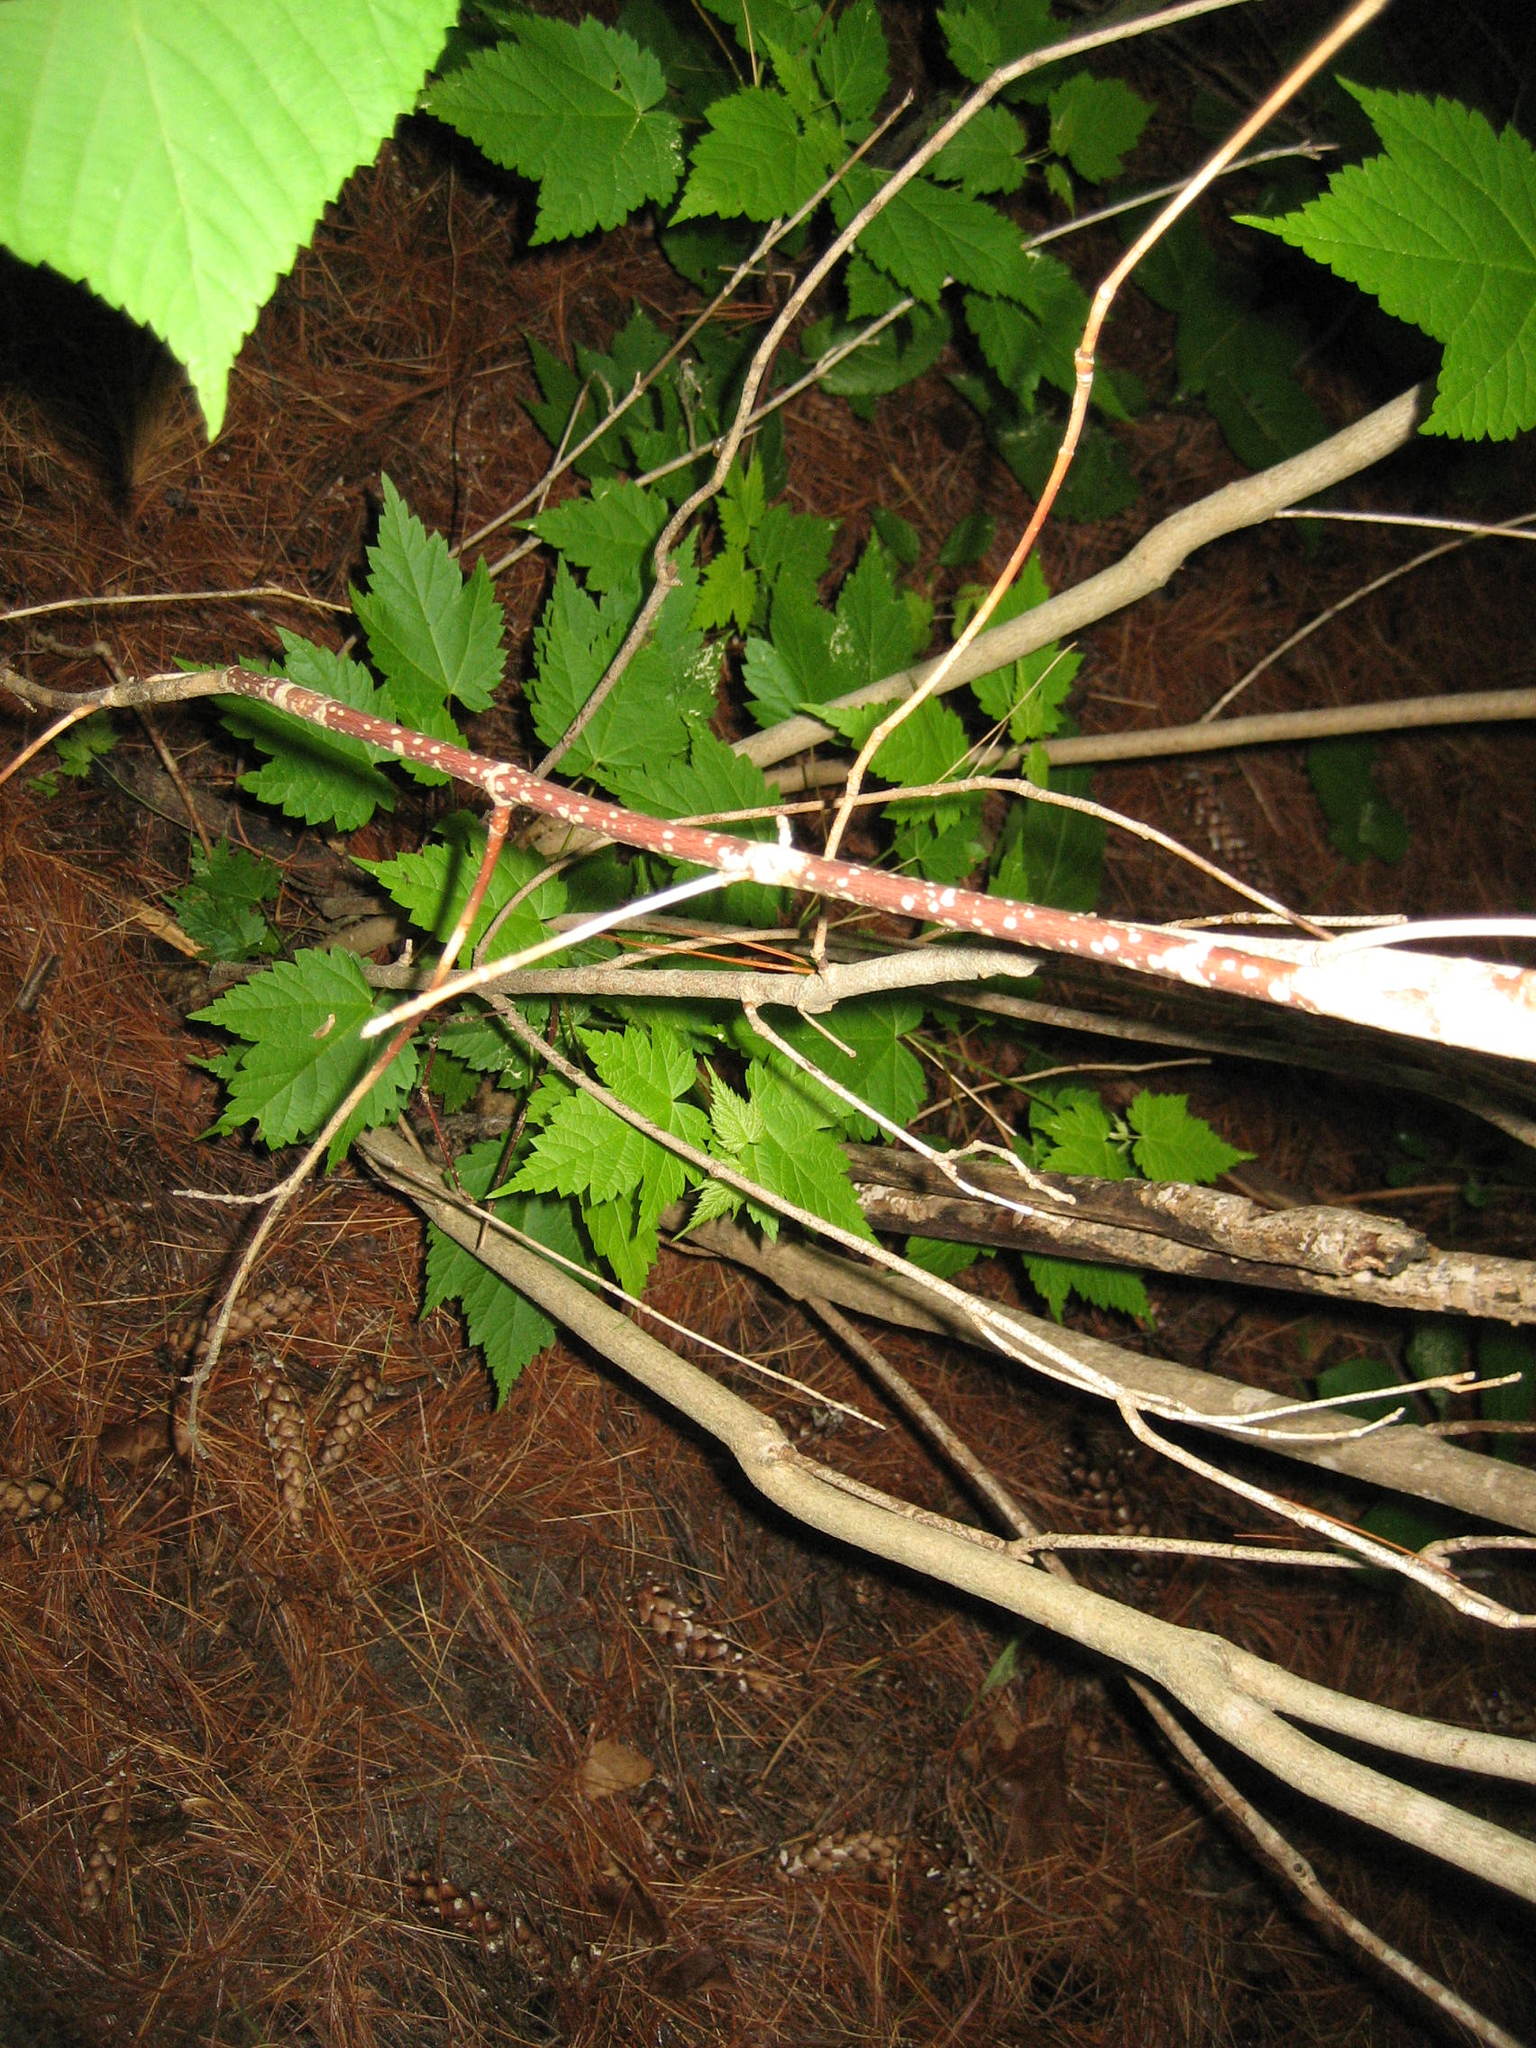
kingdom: Plantae
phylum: Tracheophyta
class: Magnoliopsida
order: Sapindales
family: Sapindaceae
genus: Acer
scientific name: Acer spicatum
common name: Mountain maple
